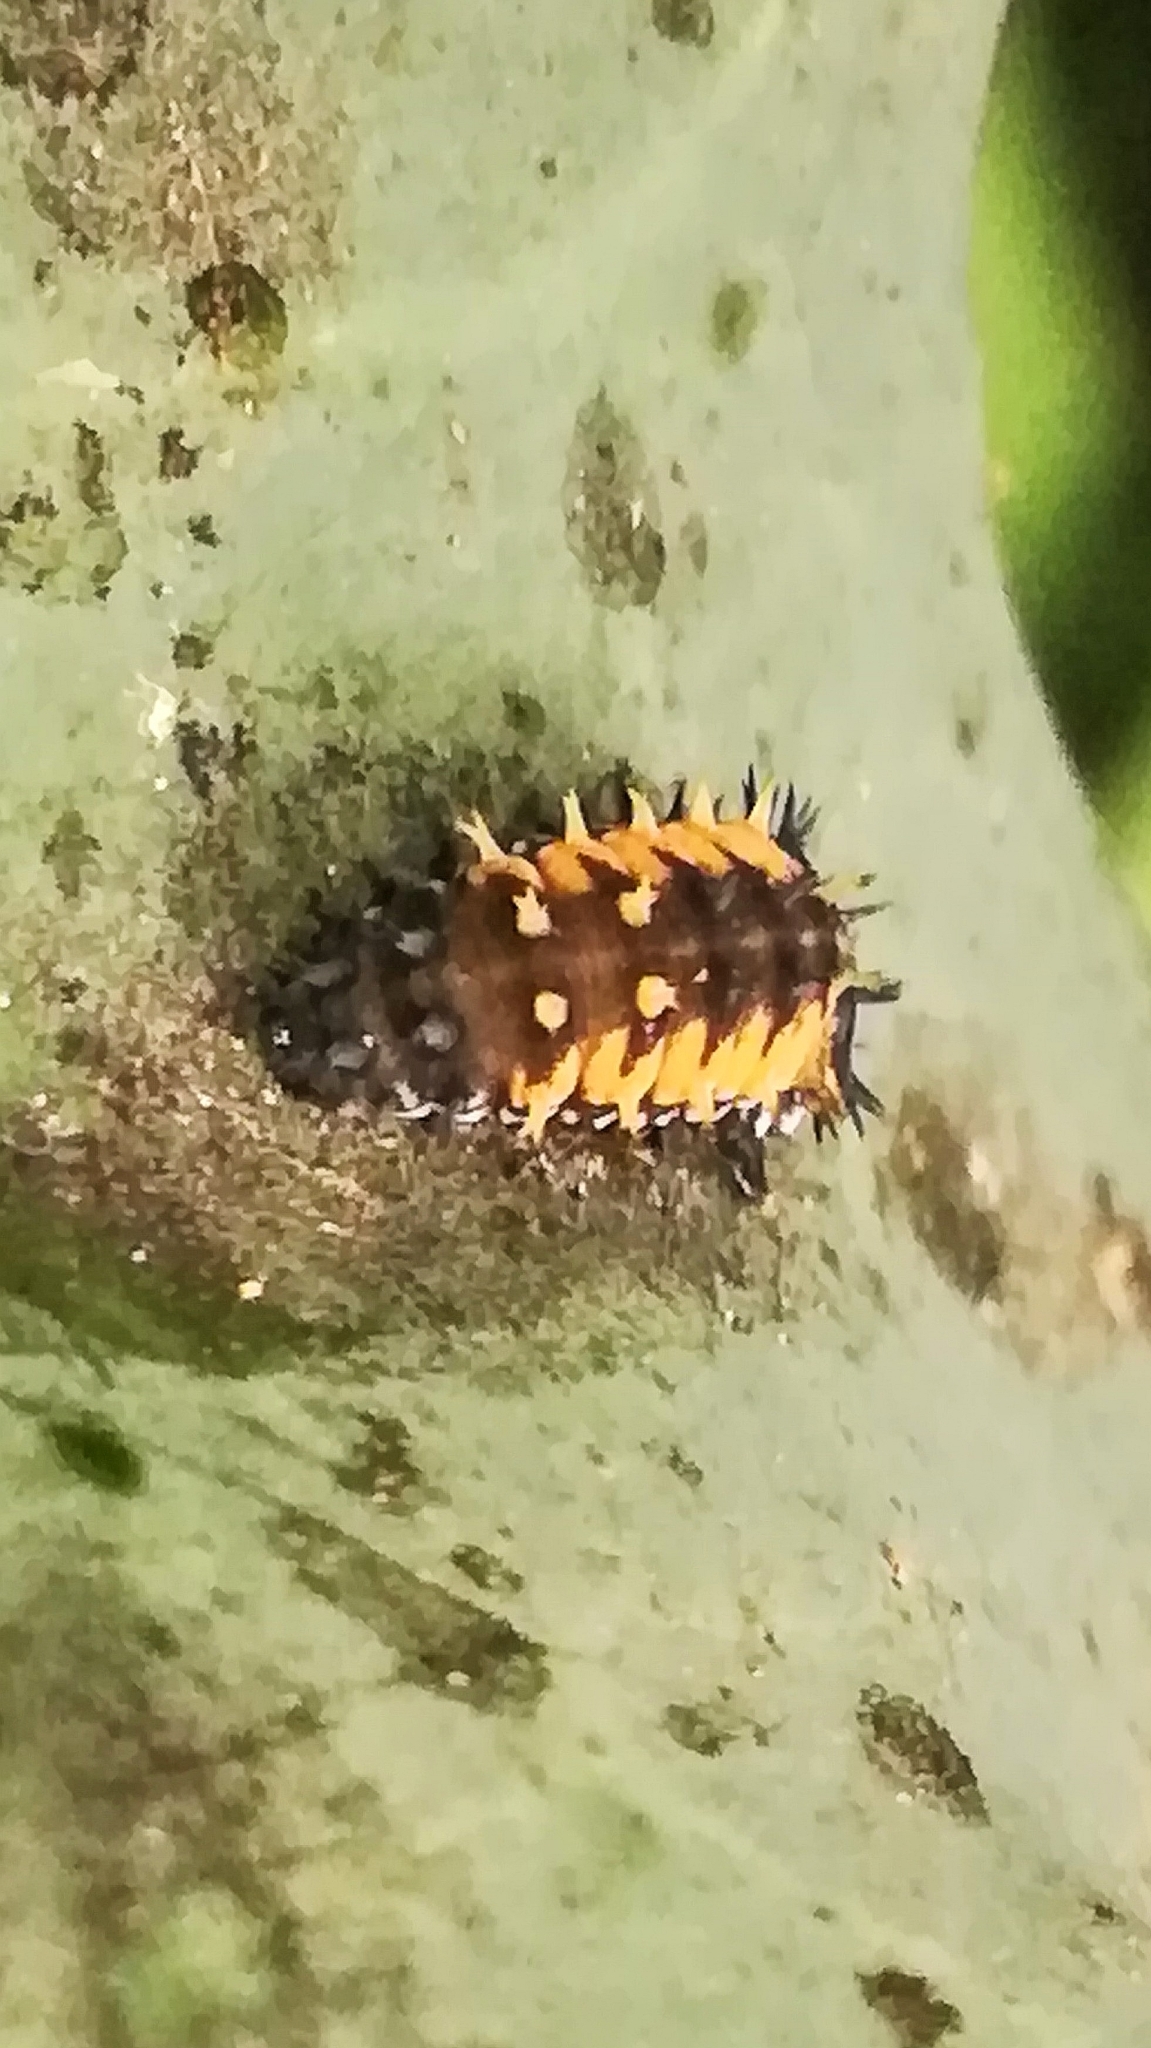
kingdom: Animalia
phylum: Arthropoda
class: Insecta
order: Coleoptera
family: Coccinellidae
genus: Harmonia
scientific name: Harmonia axyridis
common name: Harlequin ladybird
